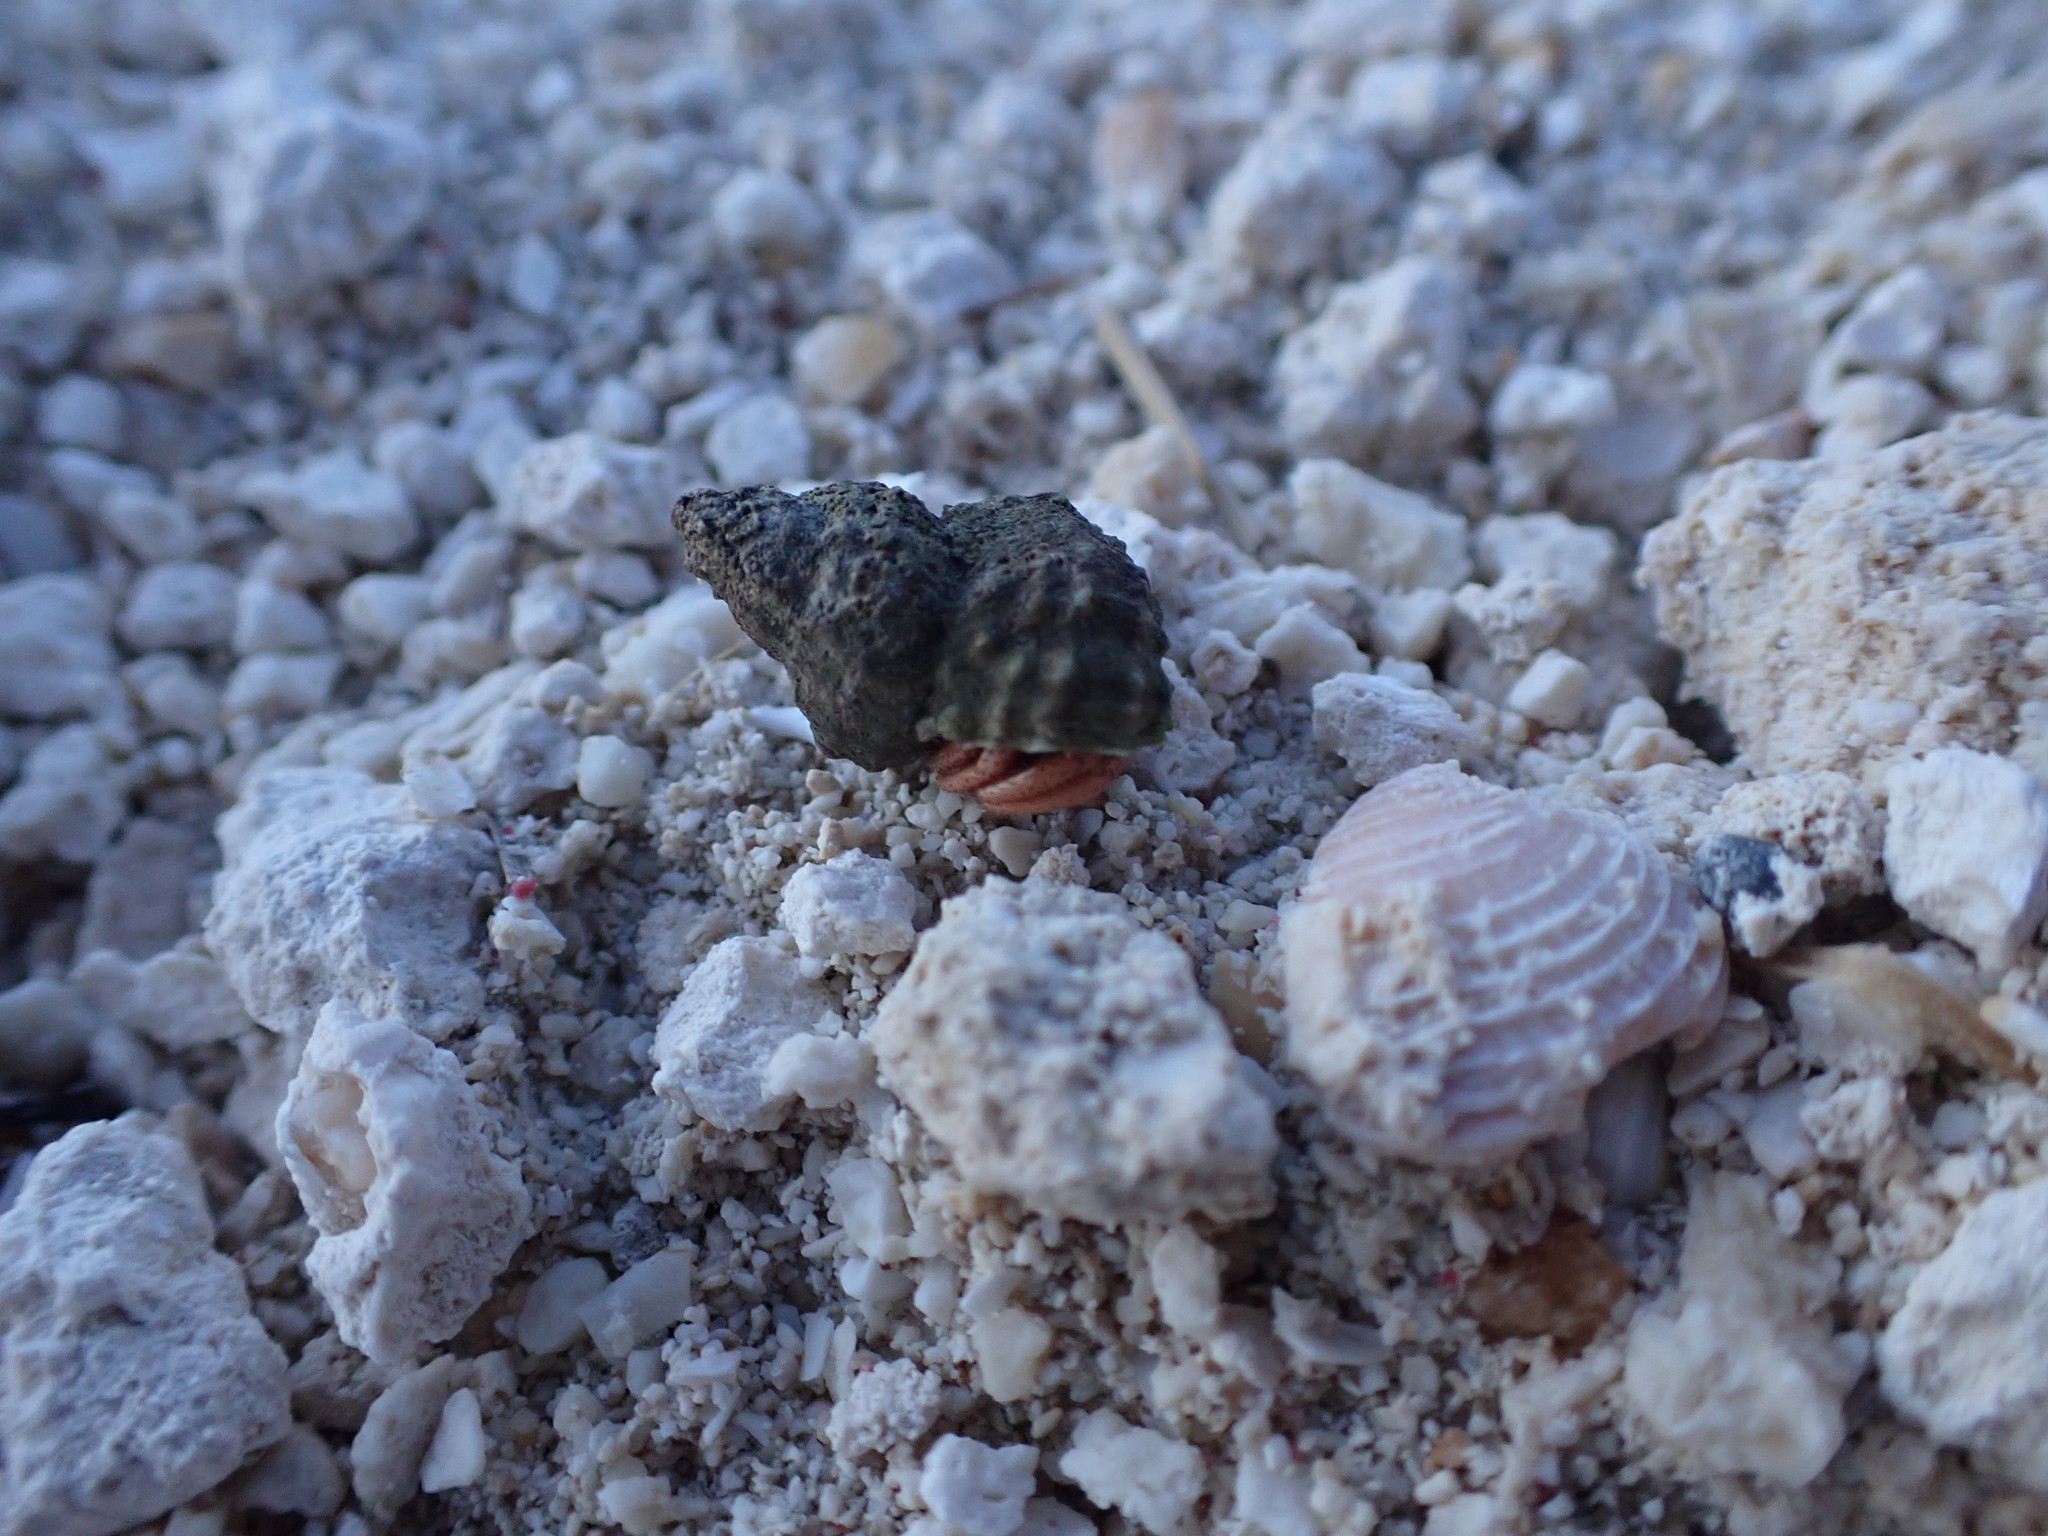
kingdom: Animalia
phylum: Arthropoda
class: Malacostraca
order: Decapoda
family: Coenobitidae
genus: Coenobita
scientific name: Coenobita clypeatus
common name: Caribbean hermit crab
